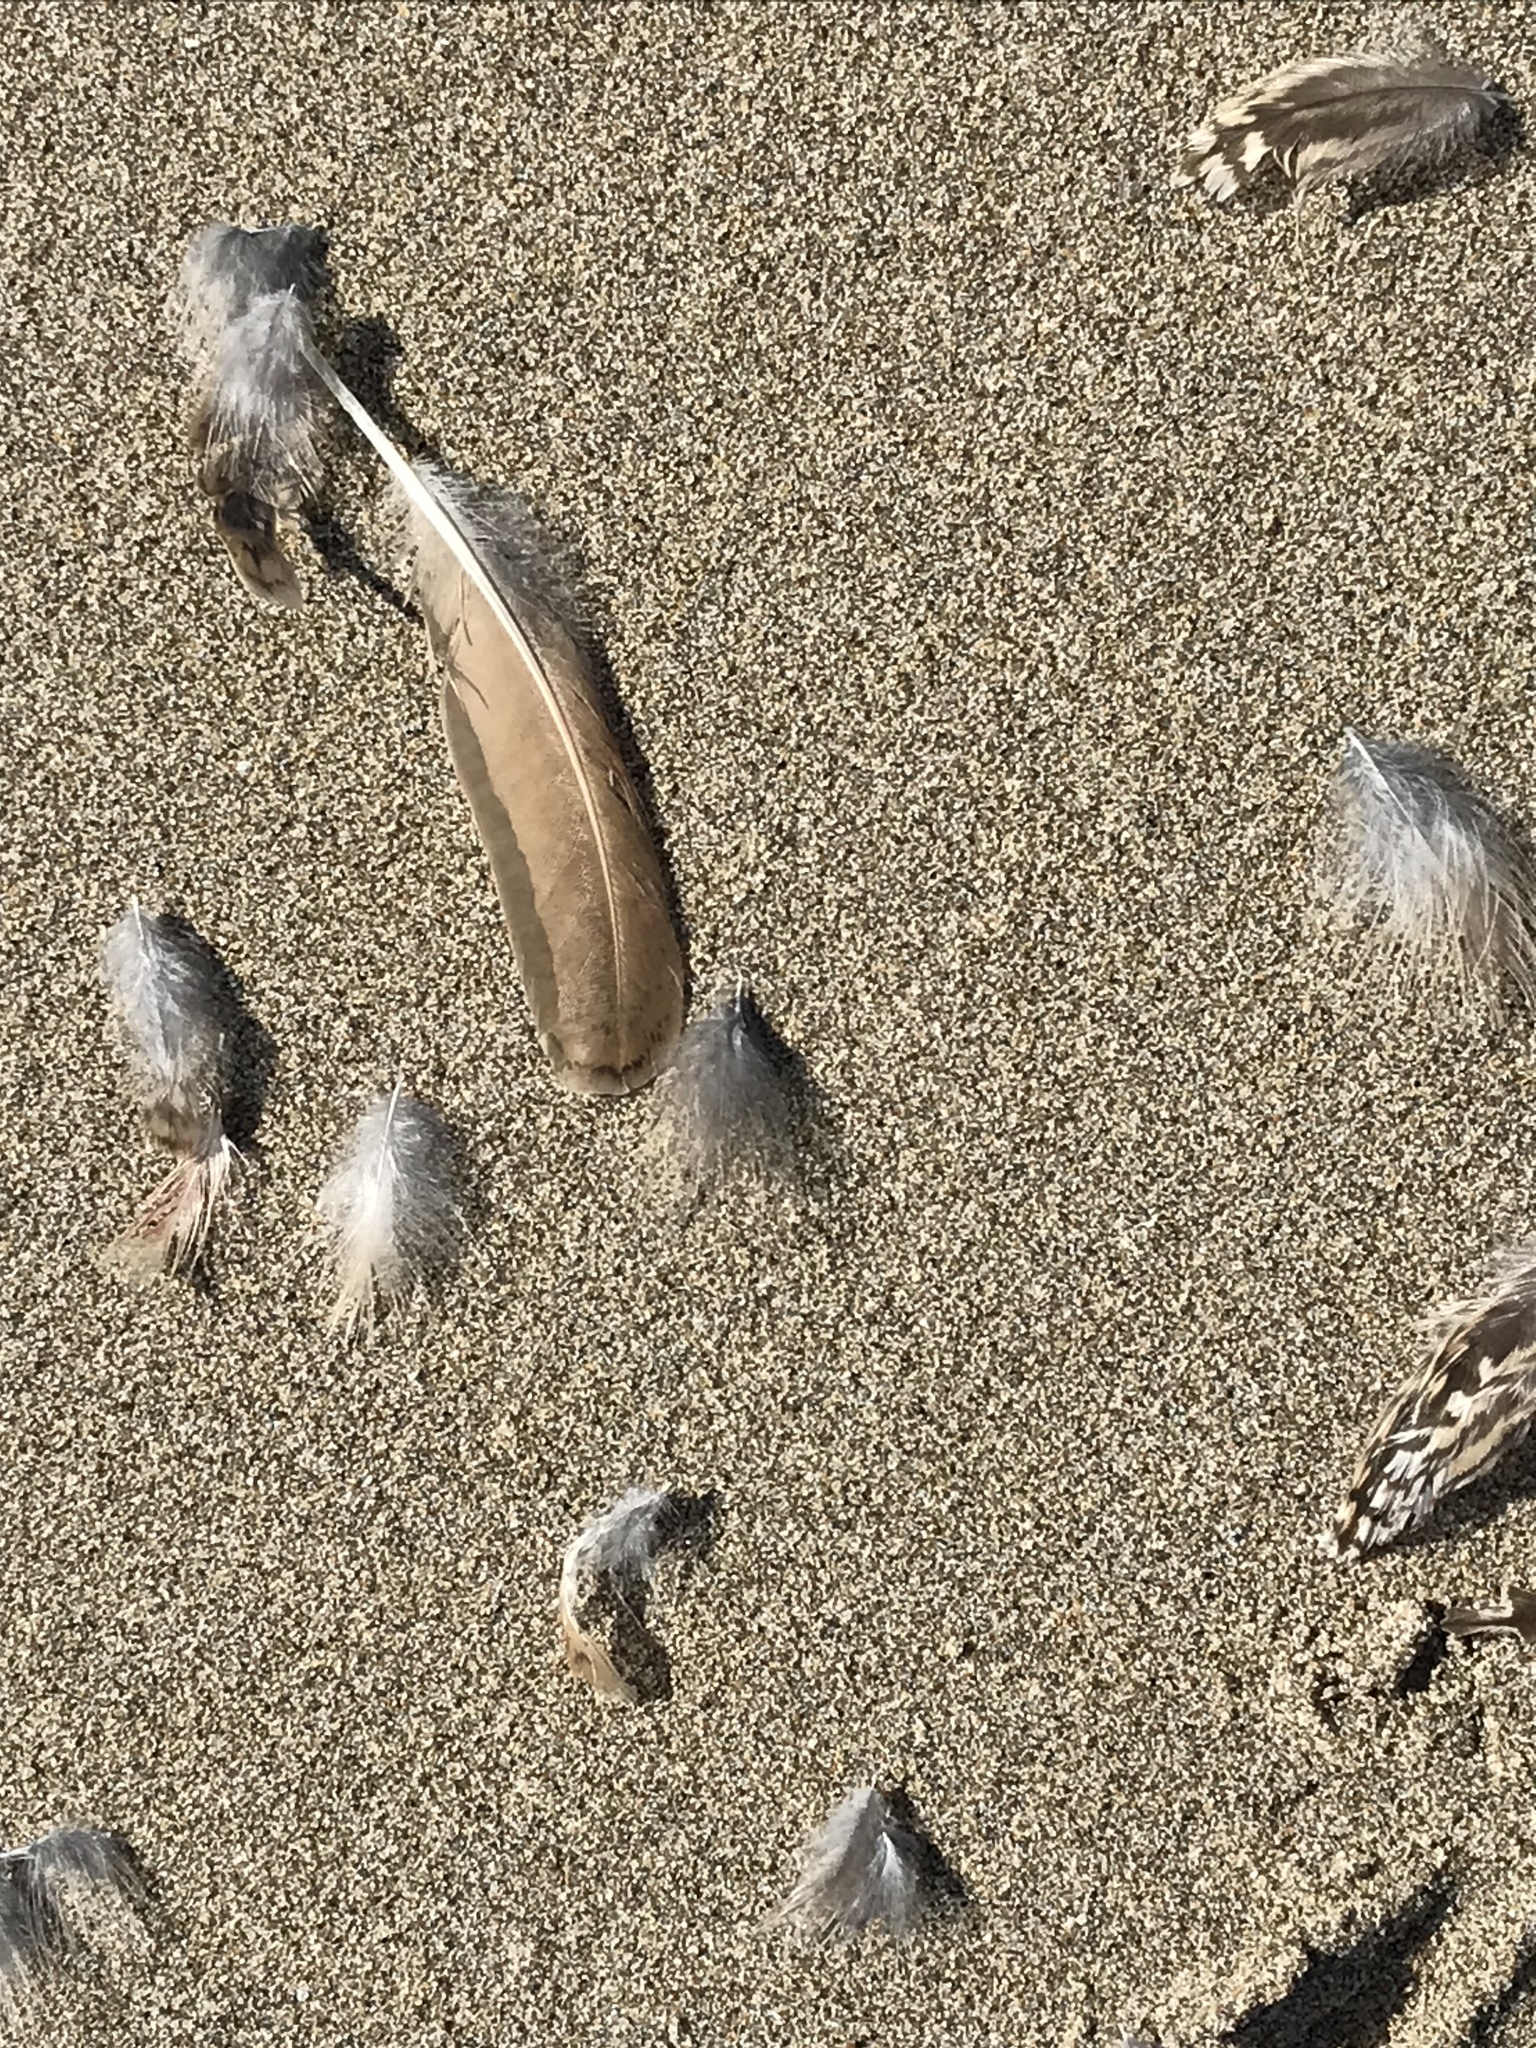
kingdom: Animalia
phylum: Chordata
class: Aves
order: Charadriiformes
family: Scolopacidae
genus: Limosa
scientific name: Limosa fedoa
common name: Marbled godwit
